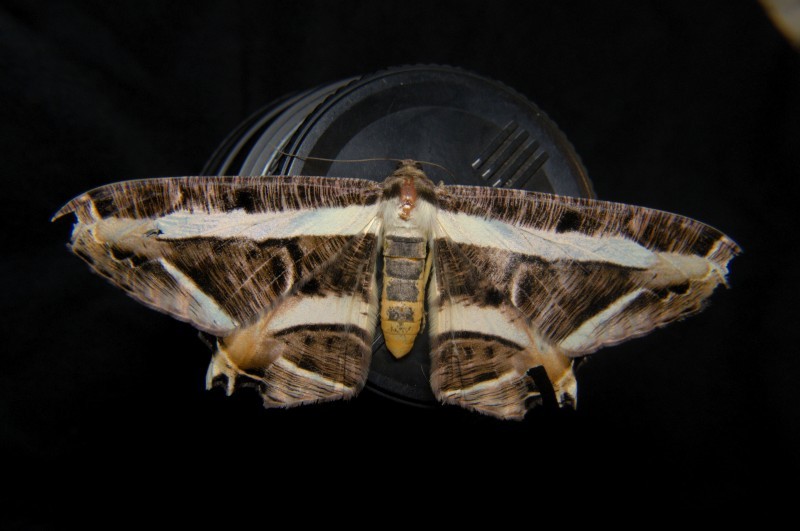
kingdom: Animalia
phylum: Arthropoda
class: Insecta
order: Lepidoptera
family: Geometridae
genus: Chorodna
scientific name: Chorodna fulgurita
